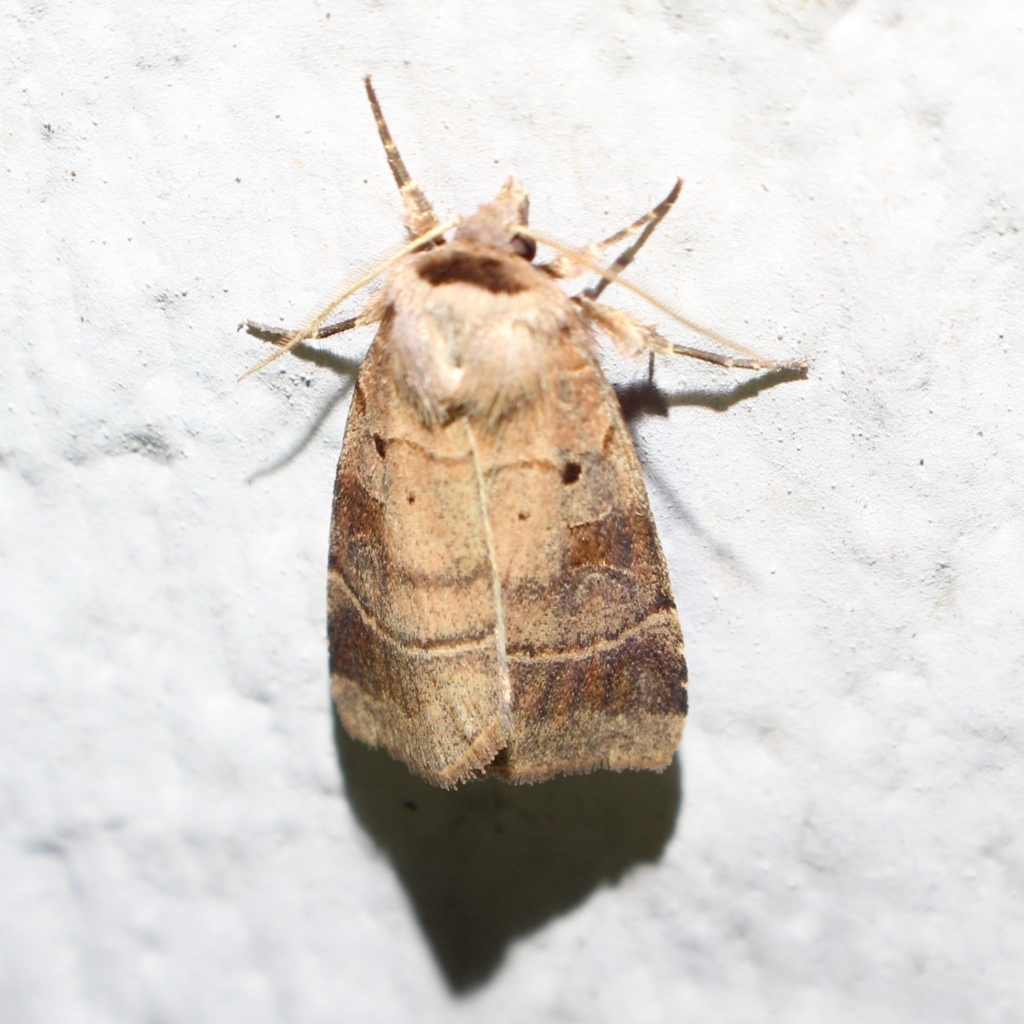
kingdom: Animalia
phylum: Arthropoda
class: Insecta
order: Lepidoptera
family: Noctuidae
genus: Agnorisma
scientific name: Agnorisma badinodis
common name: Pale-banded dart
